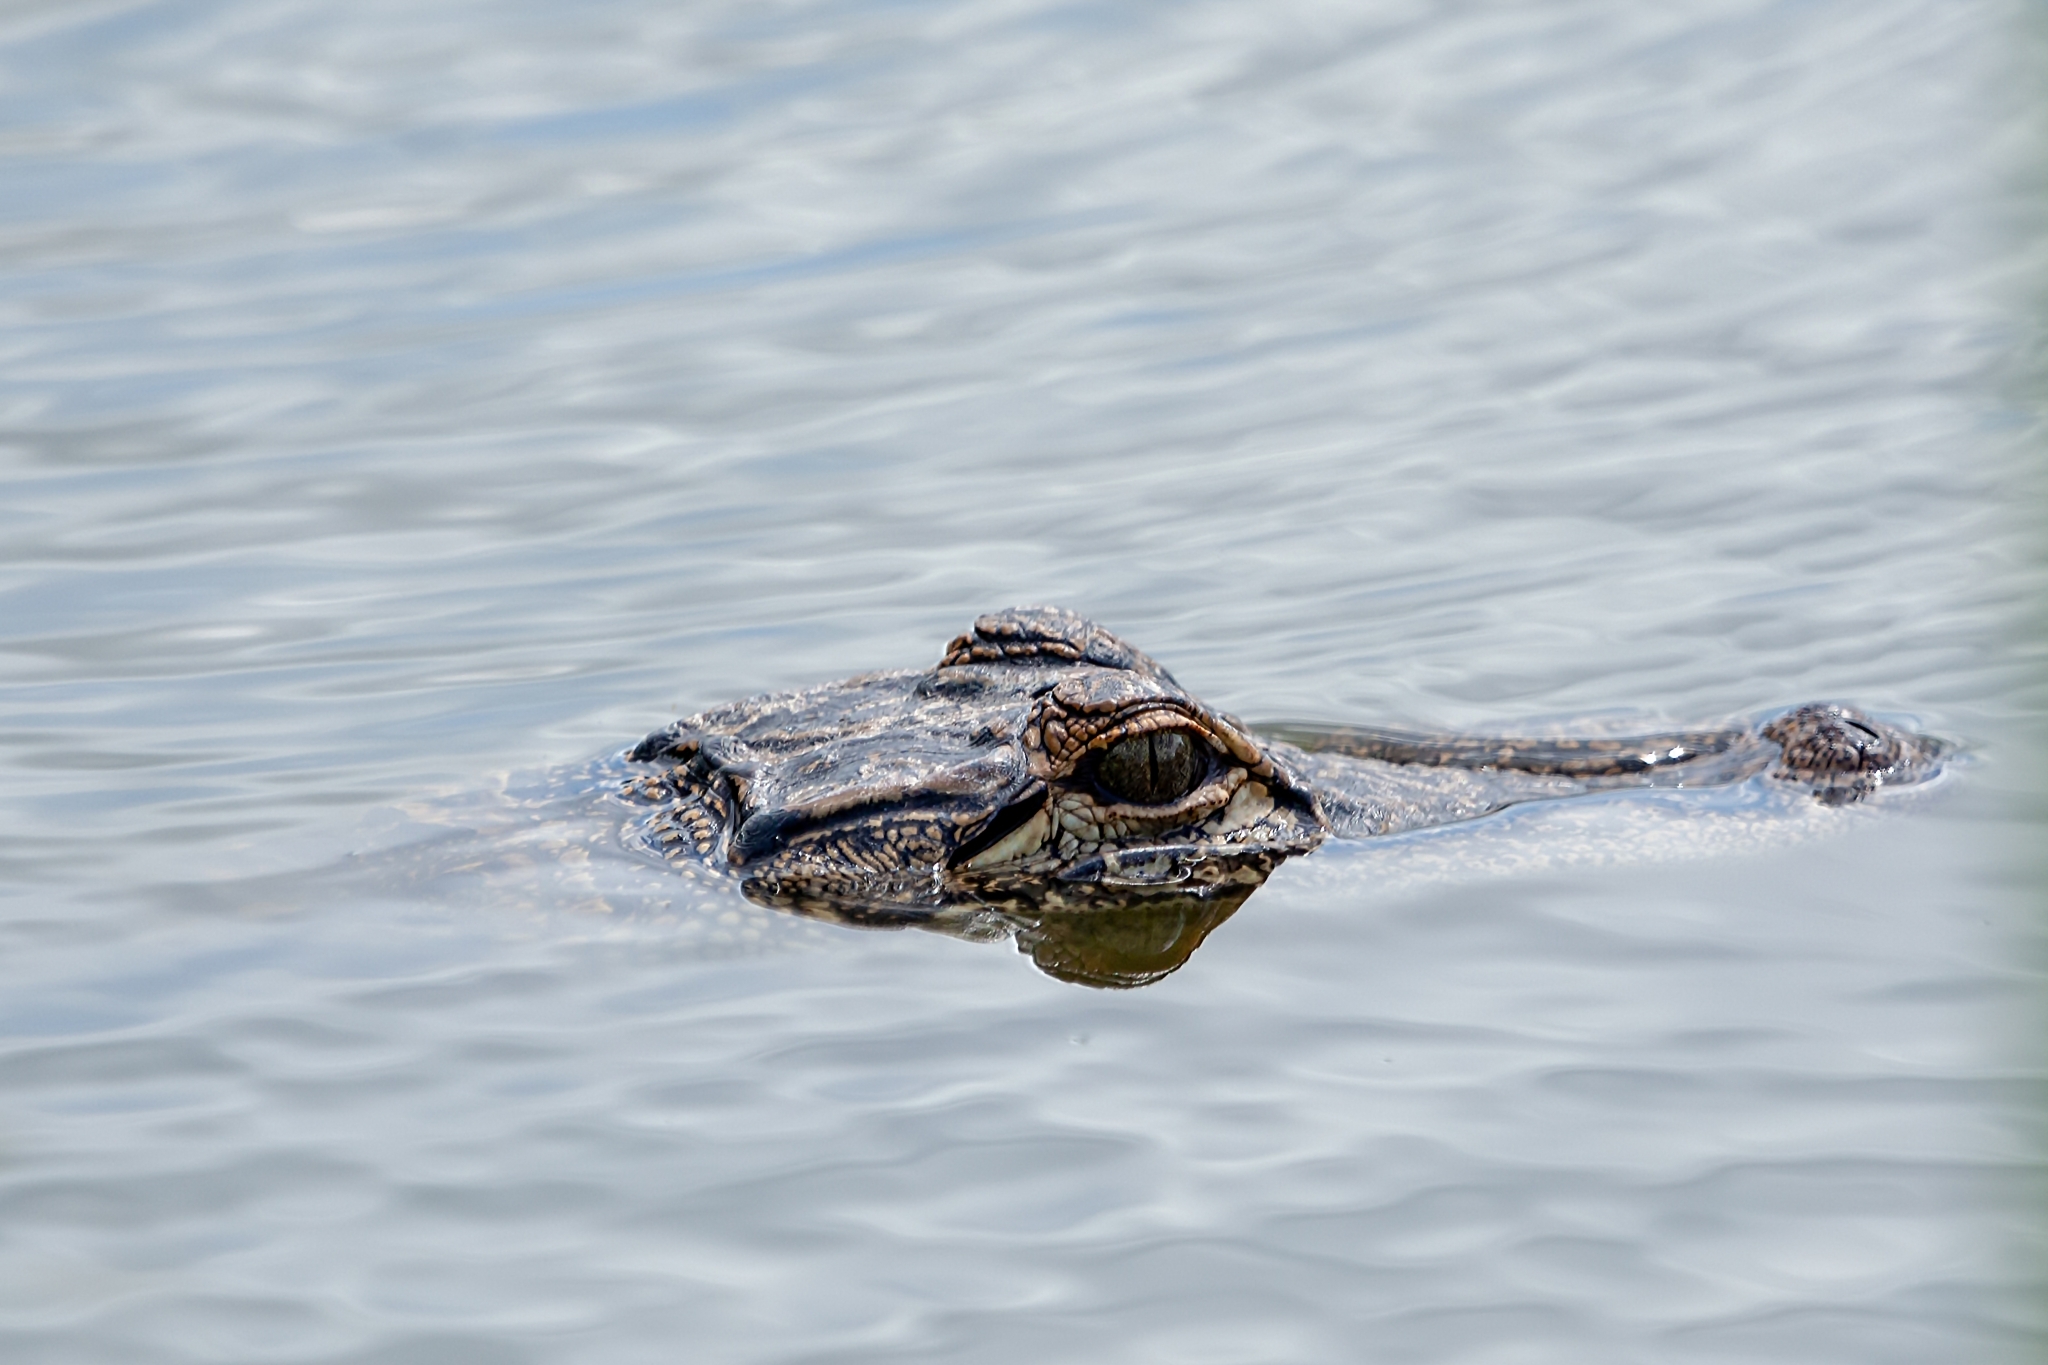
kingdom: Animalia
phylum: Chordata
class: Crocodylia
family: Alligatoridae
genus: Alligator
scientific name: Alligator mississippiensis
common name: American alligator
